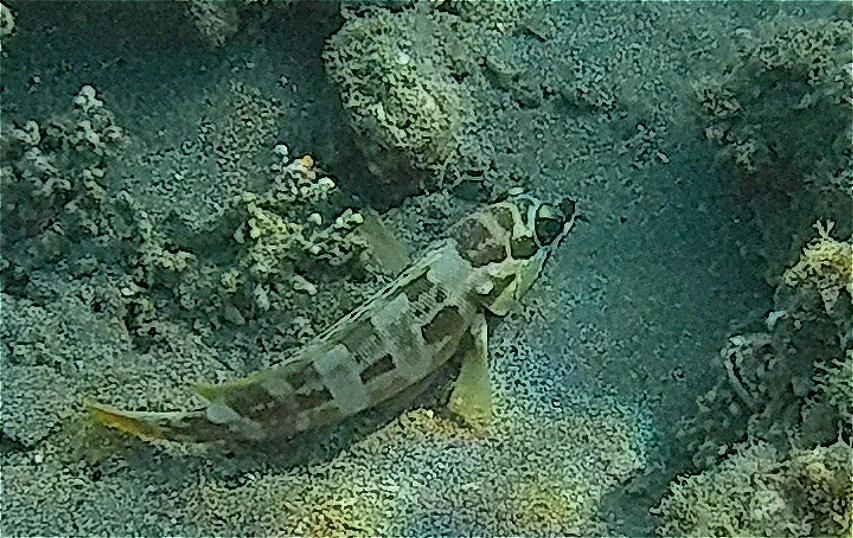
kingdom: Animalia
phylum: Chordata
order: Perciformes
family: Serranidae
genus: Epinephelus
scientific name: Epinephelus fasciatus
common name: Blacktip grouper
